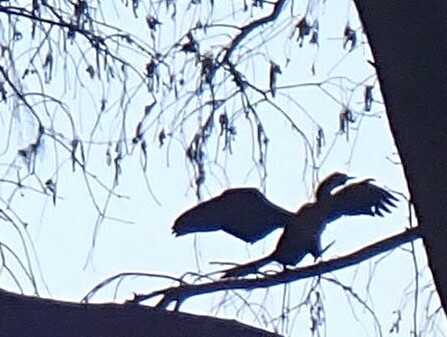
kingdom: Animalia
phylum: Chordata
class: Aves
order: Suliformes
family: Anhingidae
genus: Anhinga
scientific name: Anhinga anhinga
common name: Anhinga
